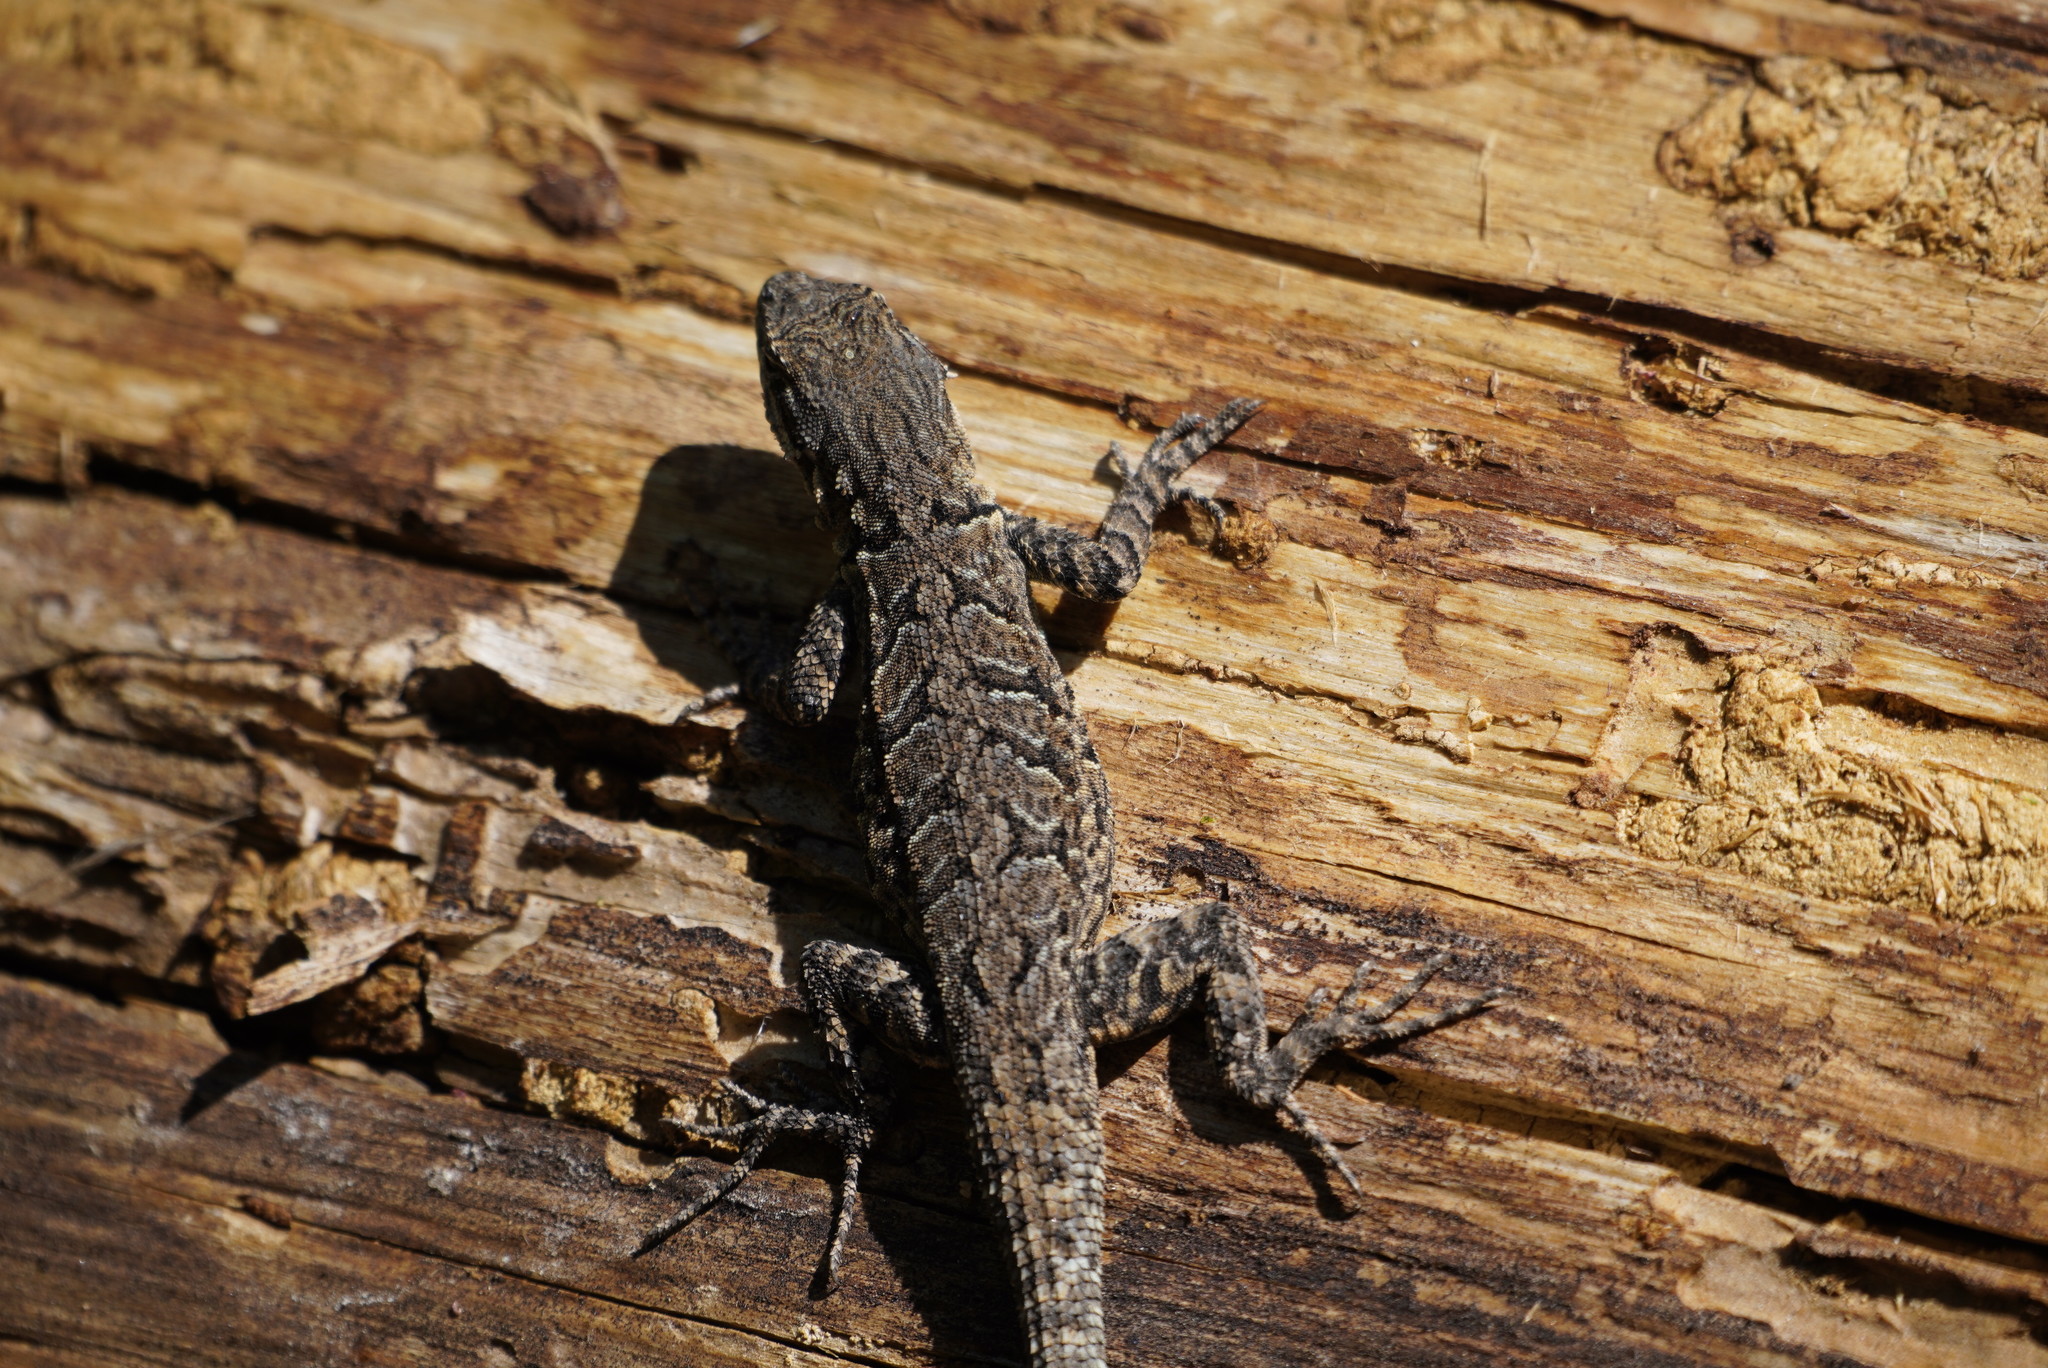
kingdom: Animalia
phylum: Chordata
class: Squamata
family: Phrynosomatidae
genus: Urosaurus
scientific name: Urosaurus ornatus
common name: Ornate tree lizard
